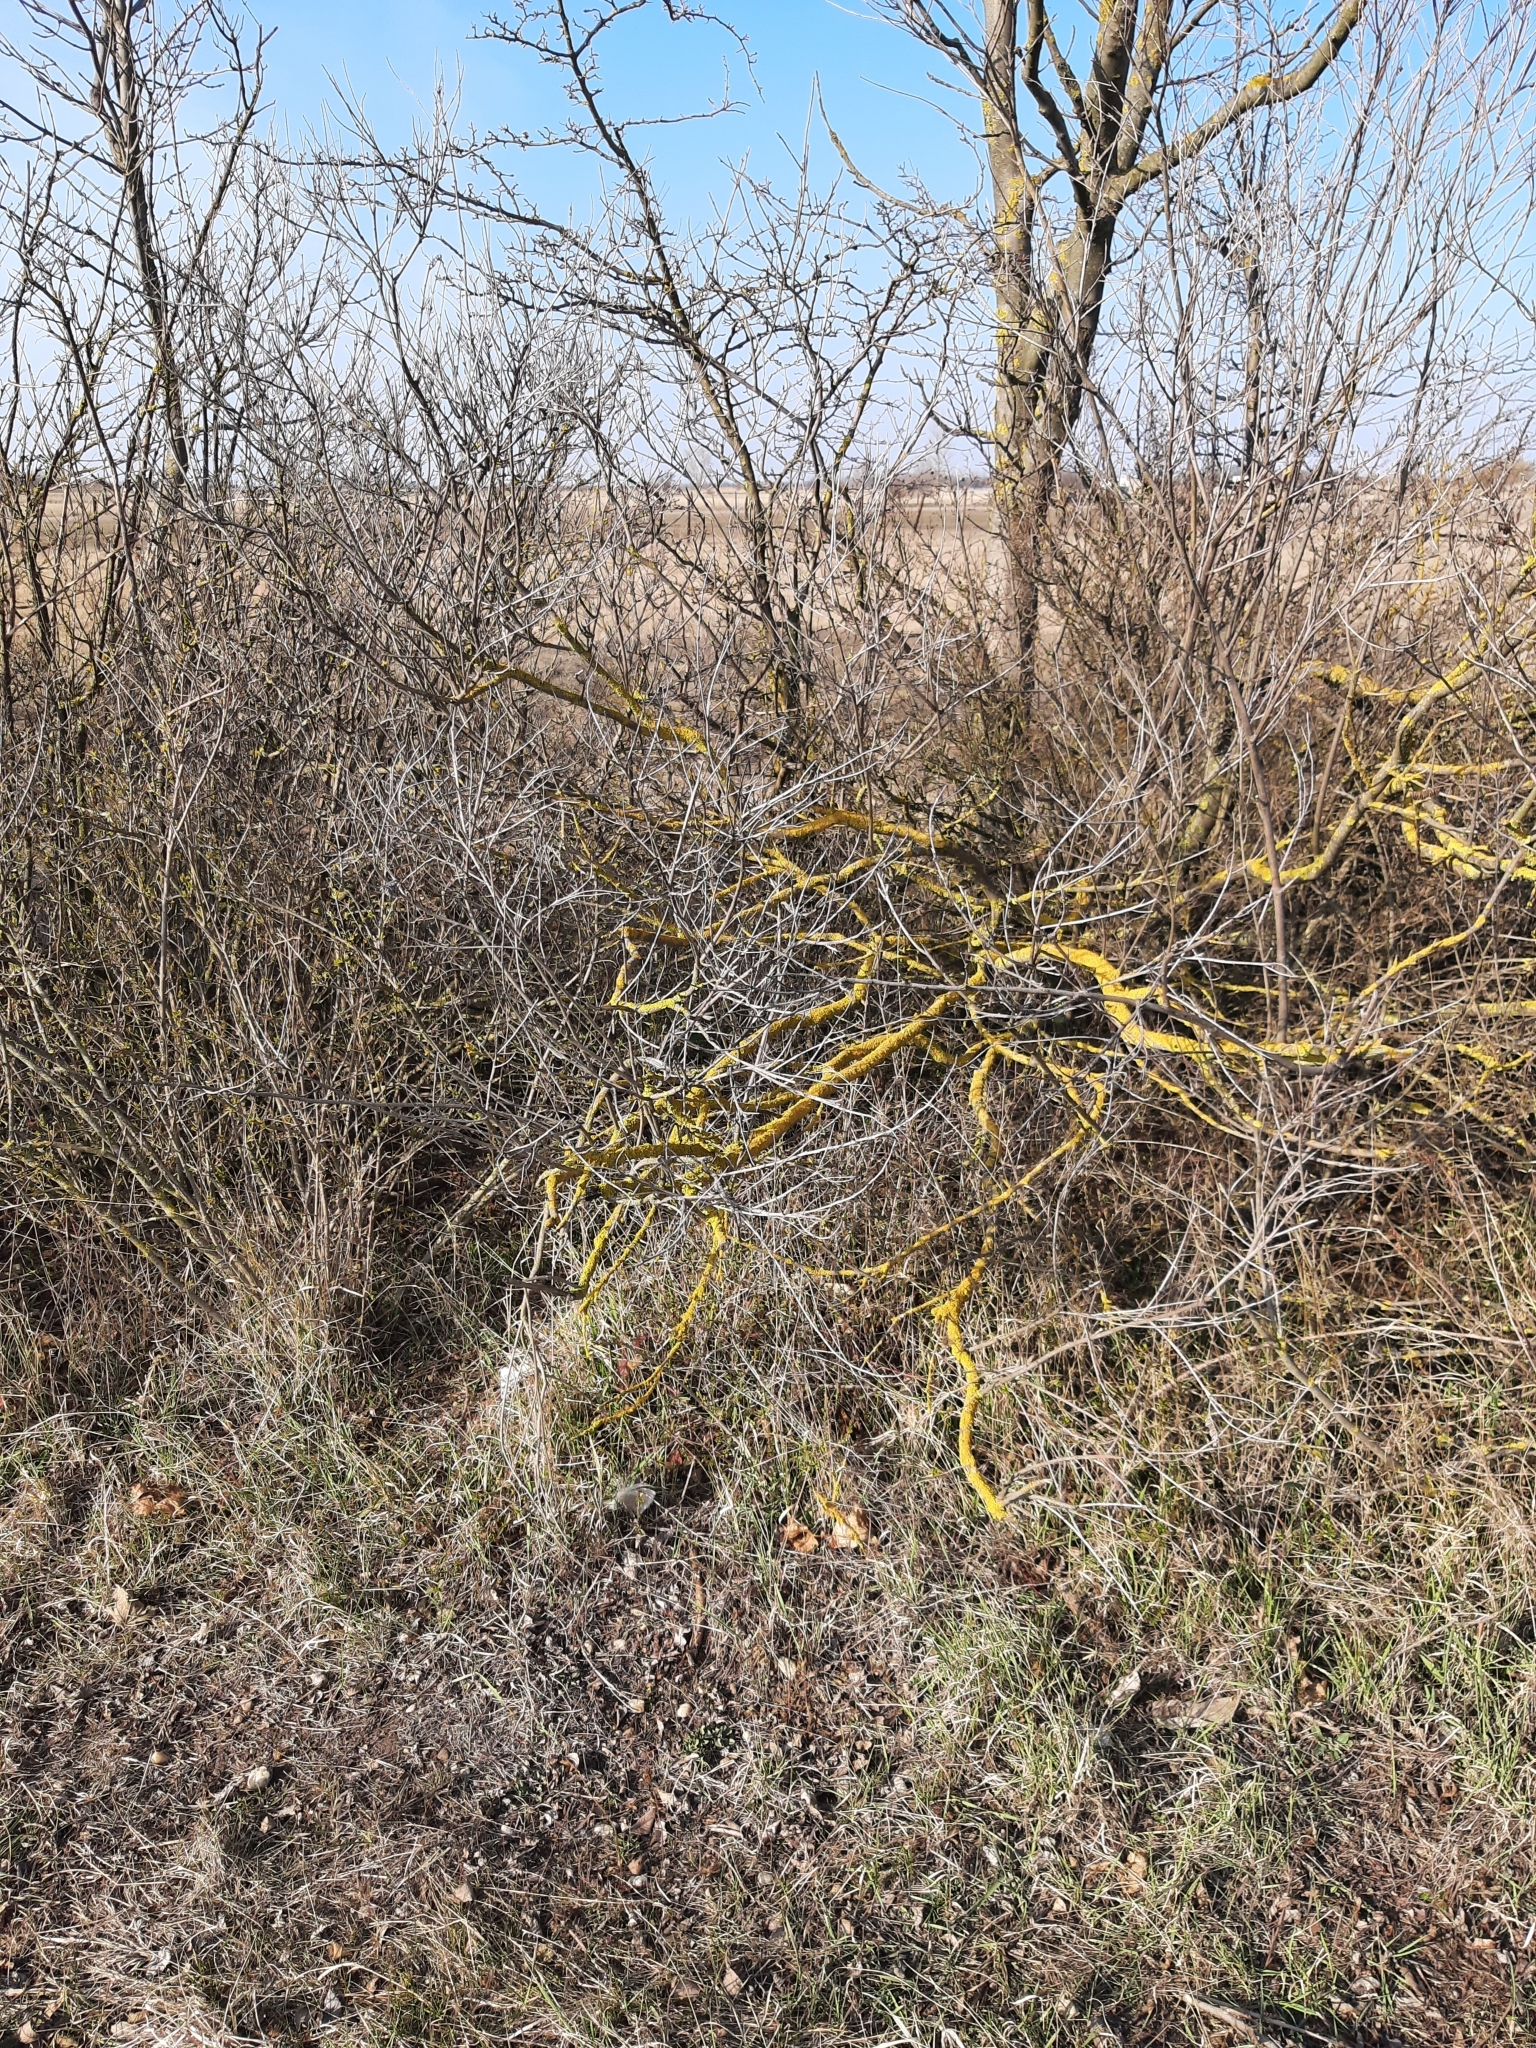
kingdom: Fungi
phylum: Ascomycota
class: Lecanoromycetes
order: Teloschistales
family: Teloschistaceae
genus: Xanthoria
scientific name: Xanthoria parietina
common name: Common orange lichen
